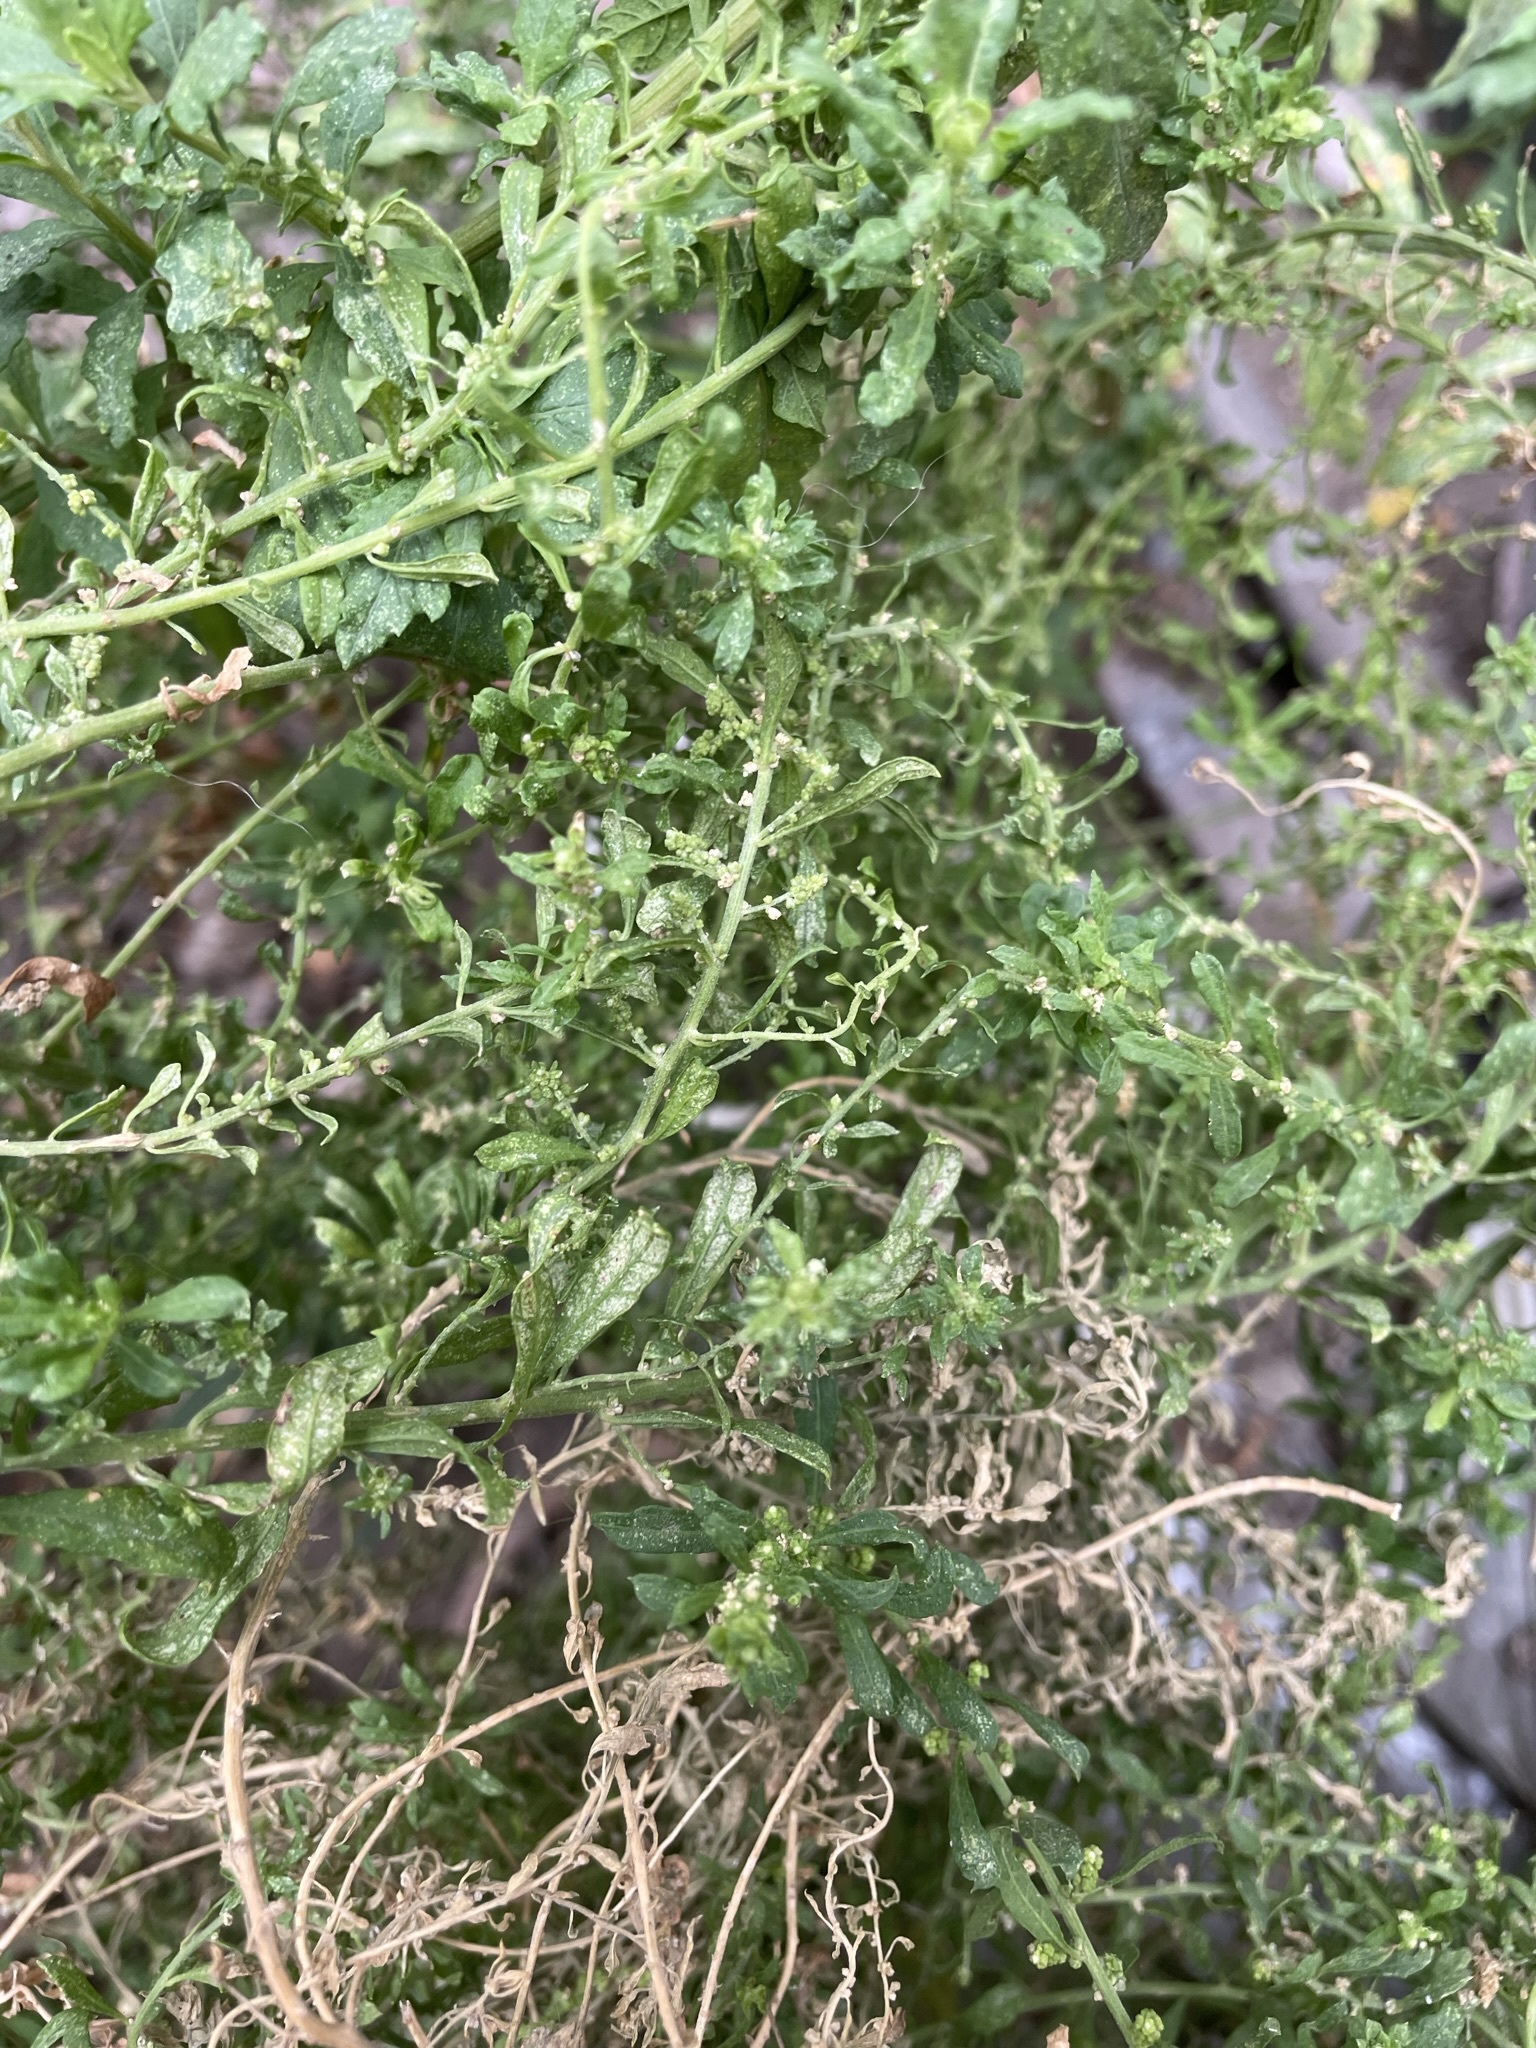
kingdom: Plantae
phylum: Tracheophyta
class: Magnoliopsida
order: Caryophyllales
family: Amaranthaceae
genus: Dysphania
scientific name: Dysphania ambrosioides
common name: Wormseed
